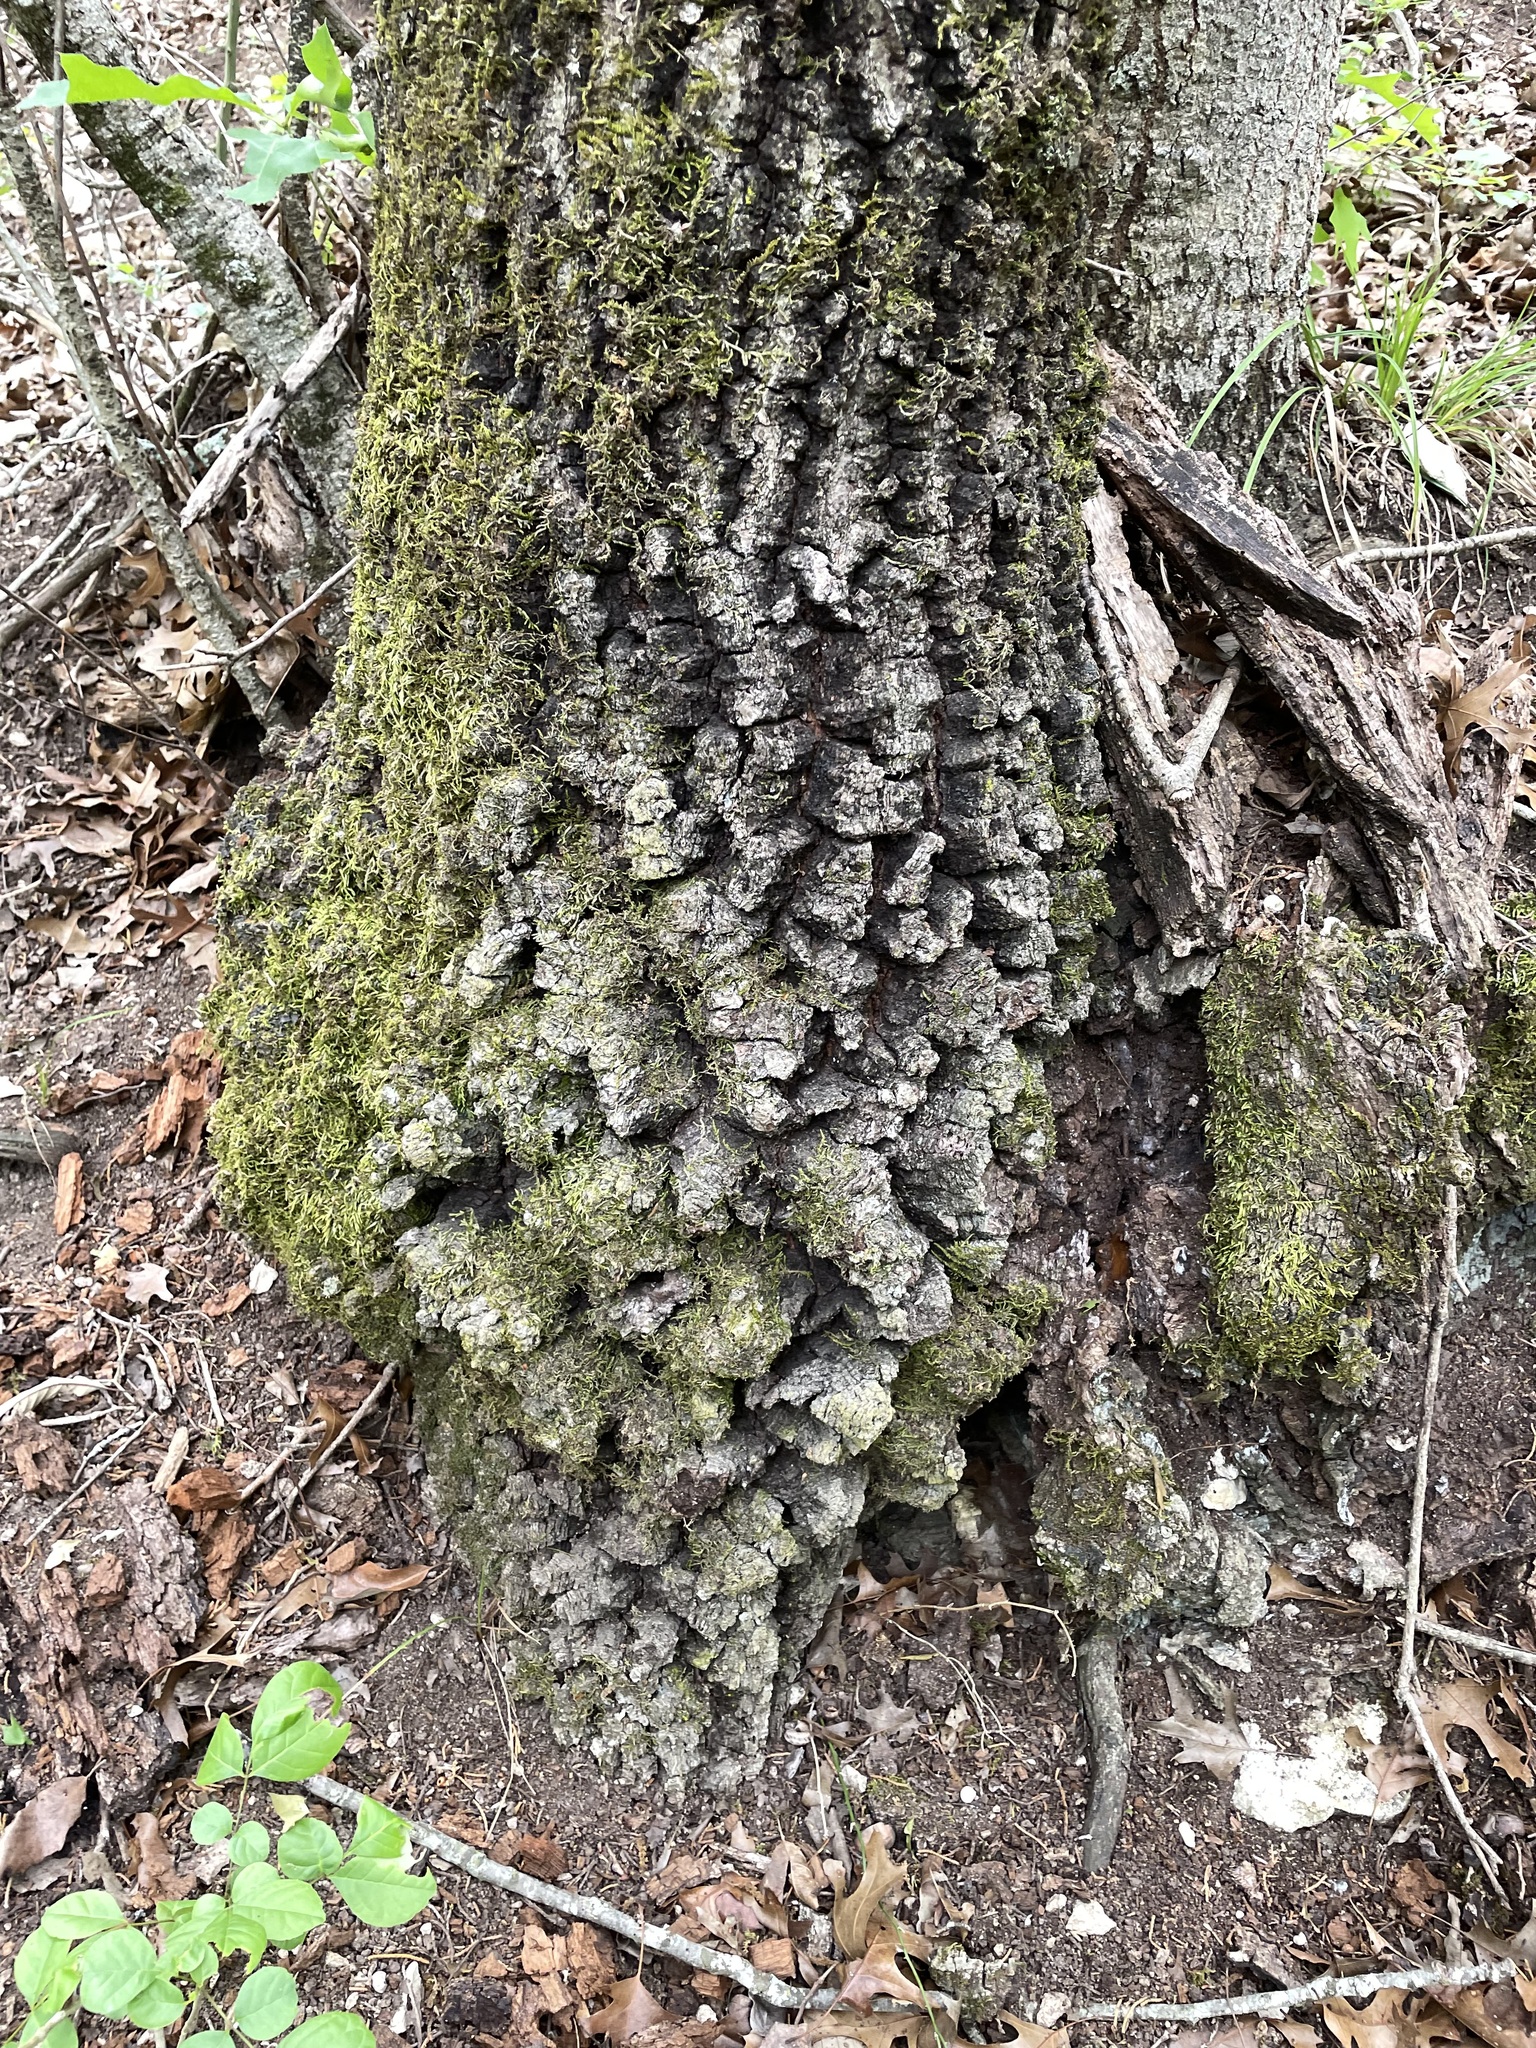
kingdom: Plantae
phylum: Tracheophyta
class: Magnoliopsida
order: Fagales
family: Fagaceae
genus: Quercus
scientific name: Quercus buckleyi
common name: Buckley oak
